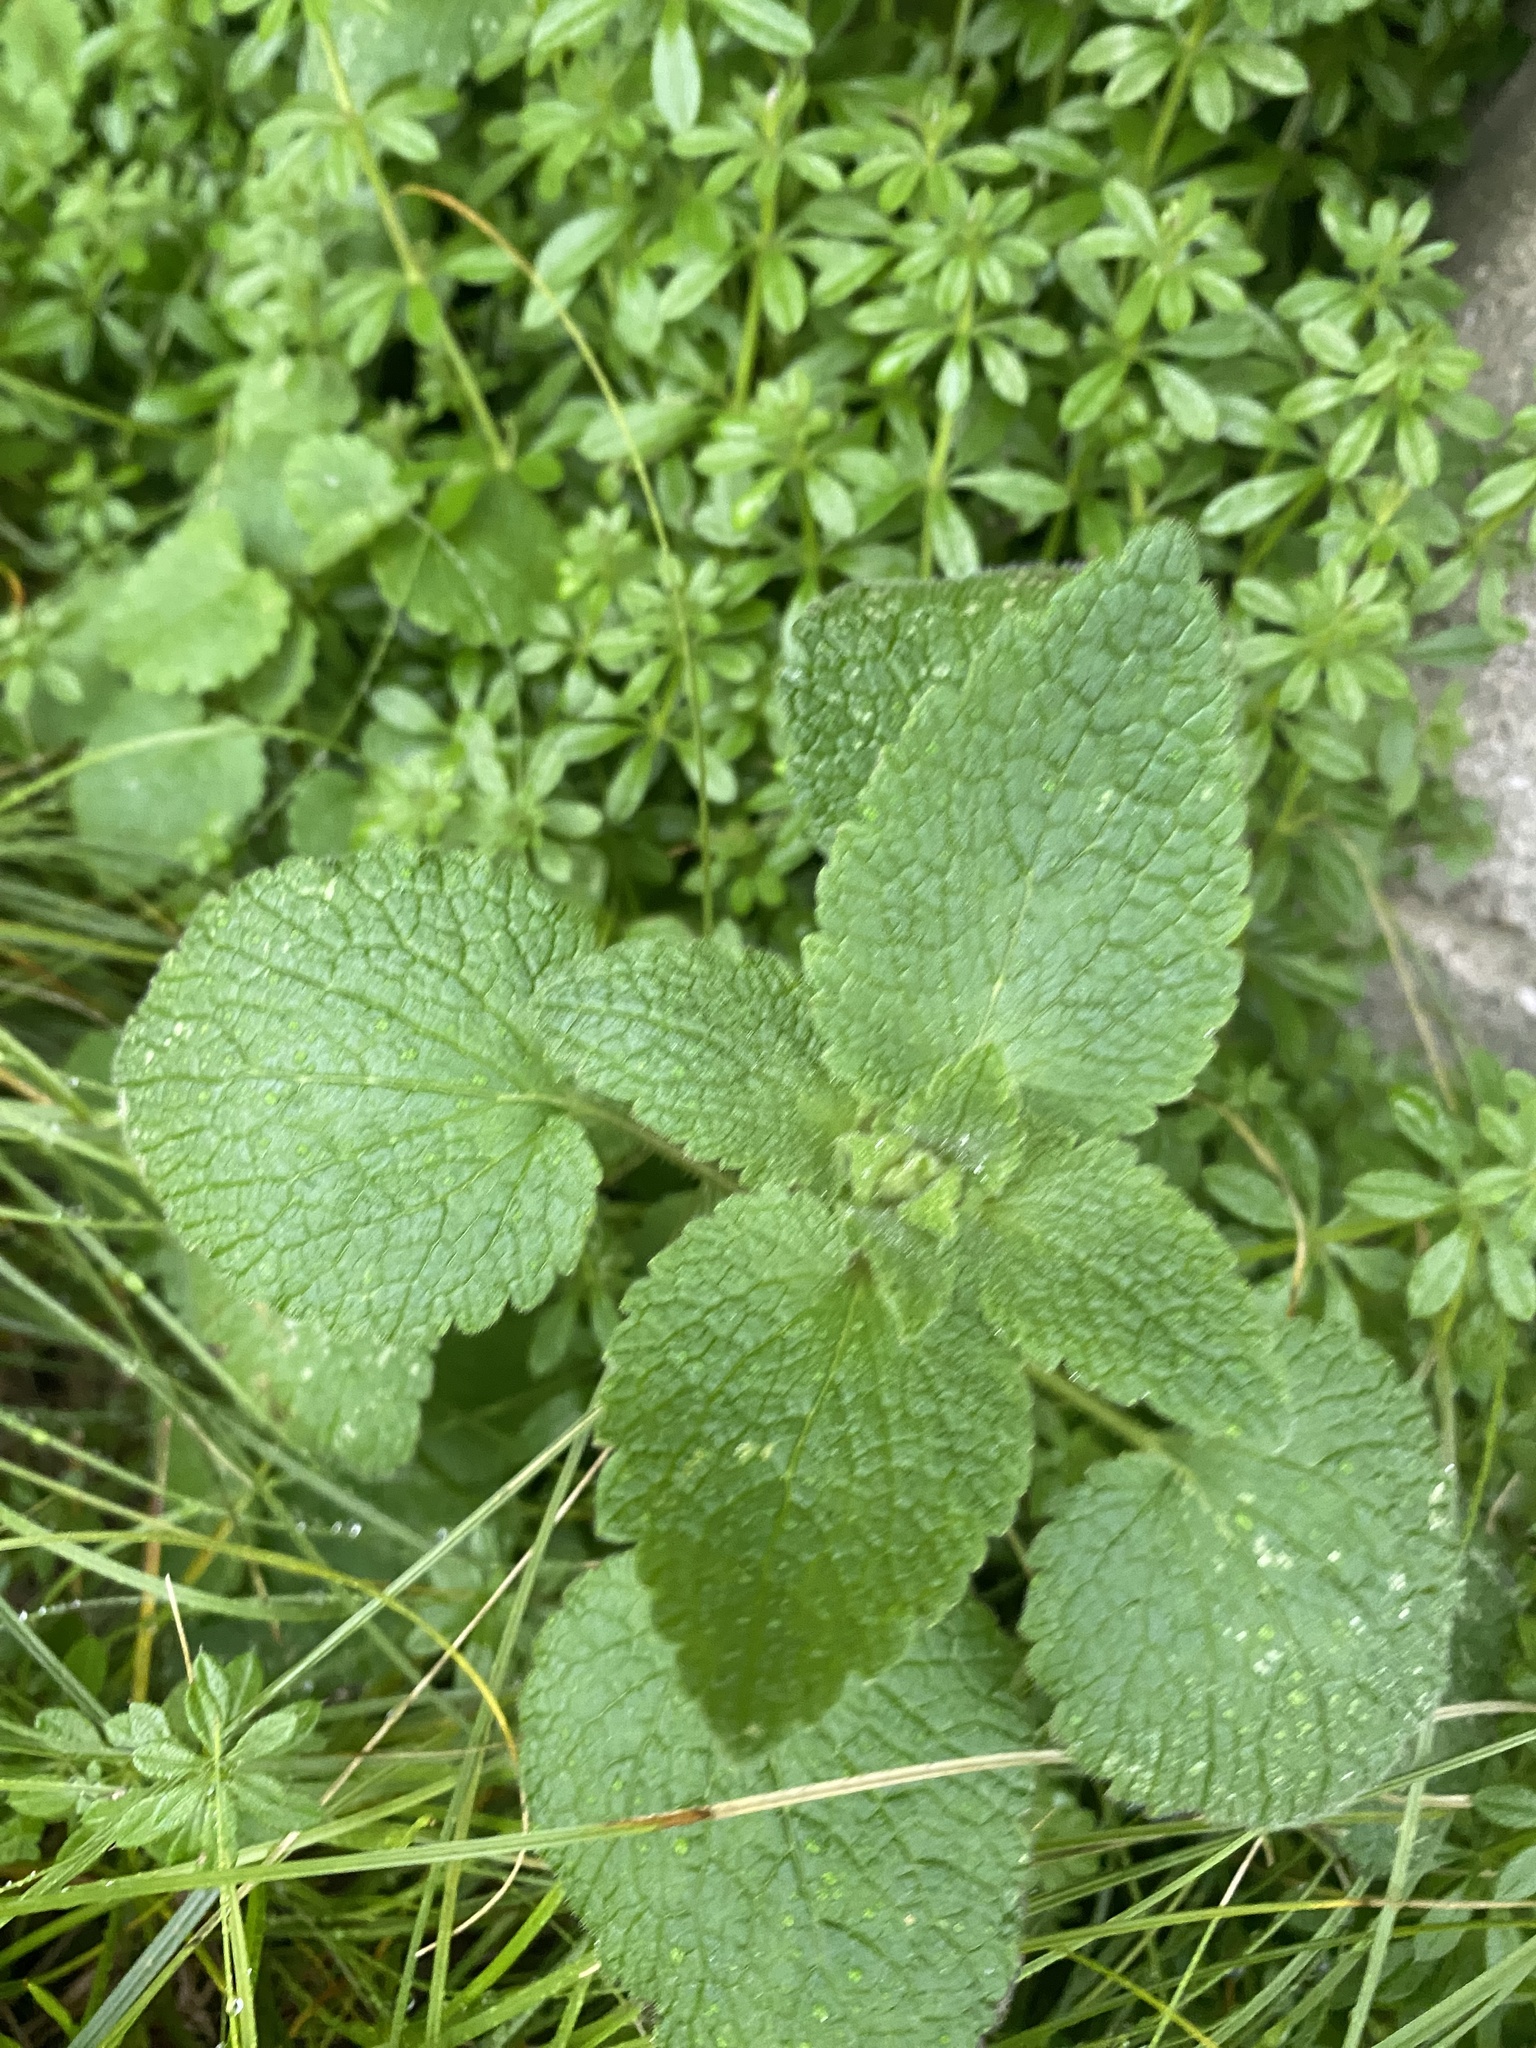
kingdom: Plantae
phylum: Tracheophyta
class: Magnoliopsida
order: Lamiales
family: Lamiaceae
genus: Lamium
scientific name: Lamium purpureum
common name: Red dead-nettle
